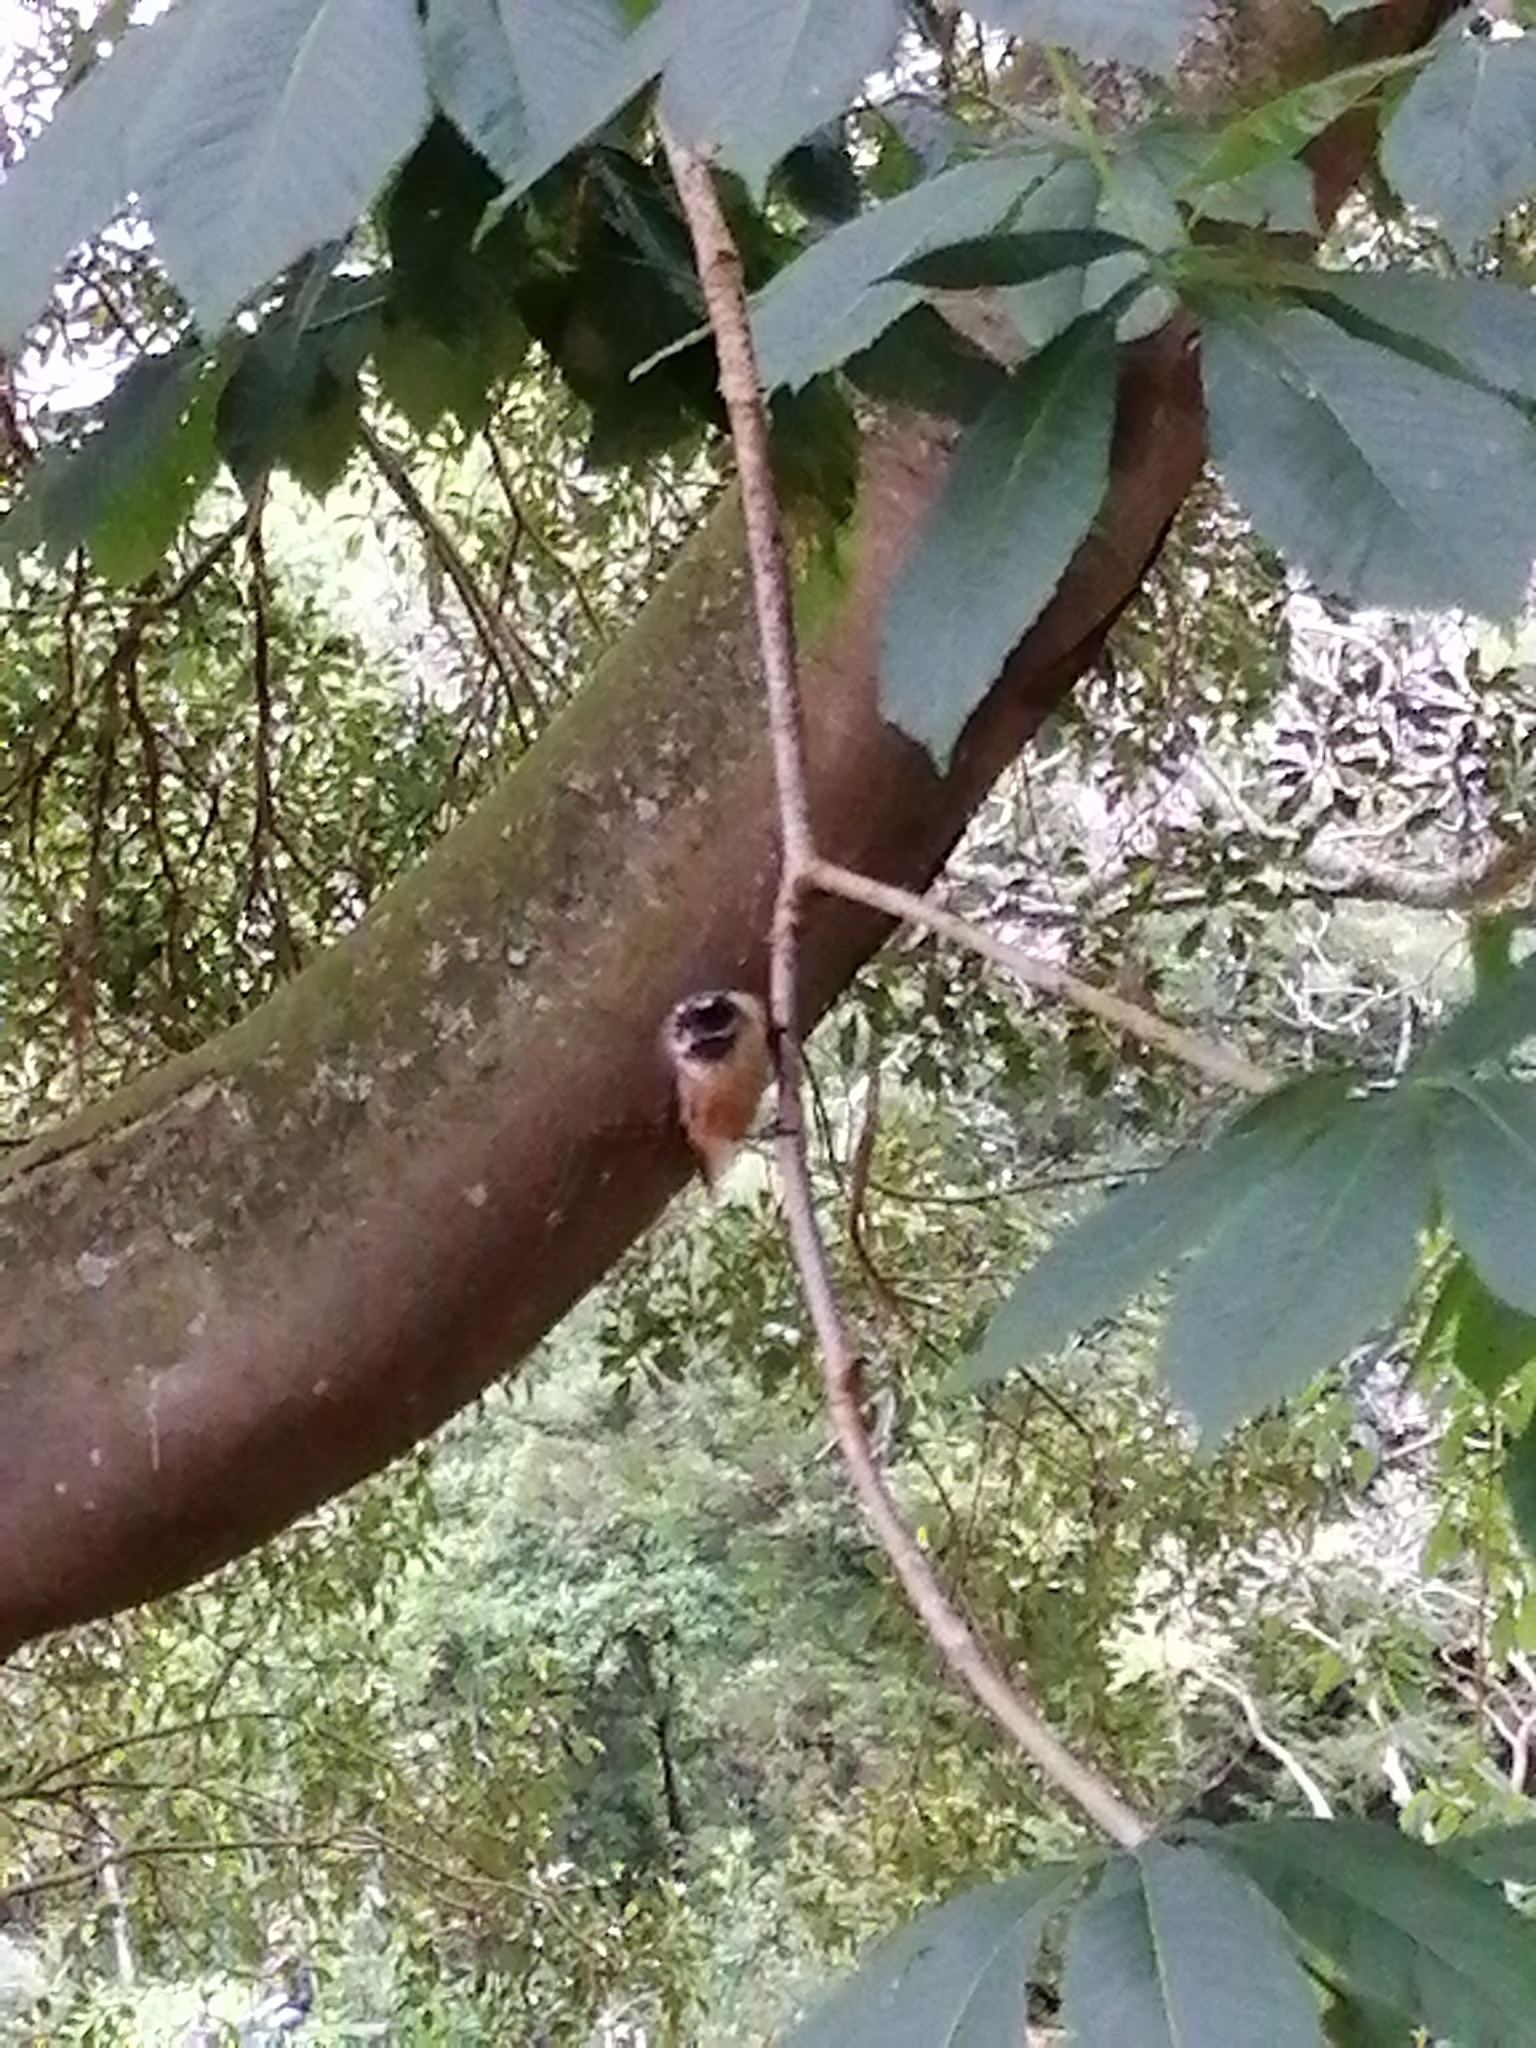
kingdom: Animalia
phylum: Chordata
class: Aves
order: Passeriformes
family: Rhipiduridae
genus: Rhipidura
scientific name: Rhipidura fuliginosa
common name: New zealand fantail
